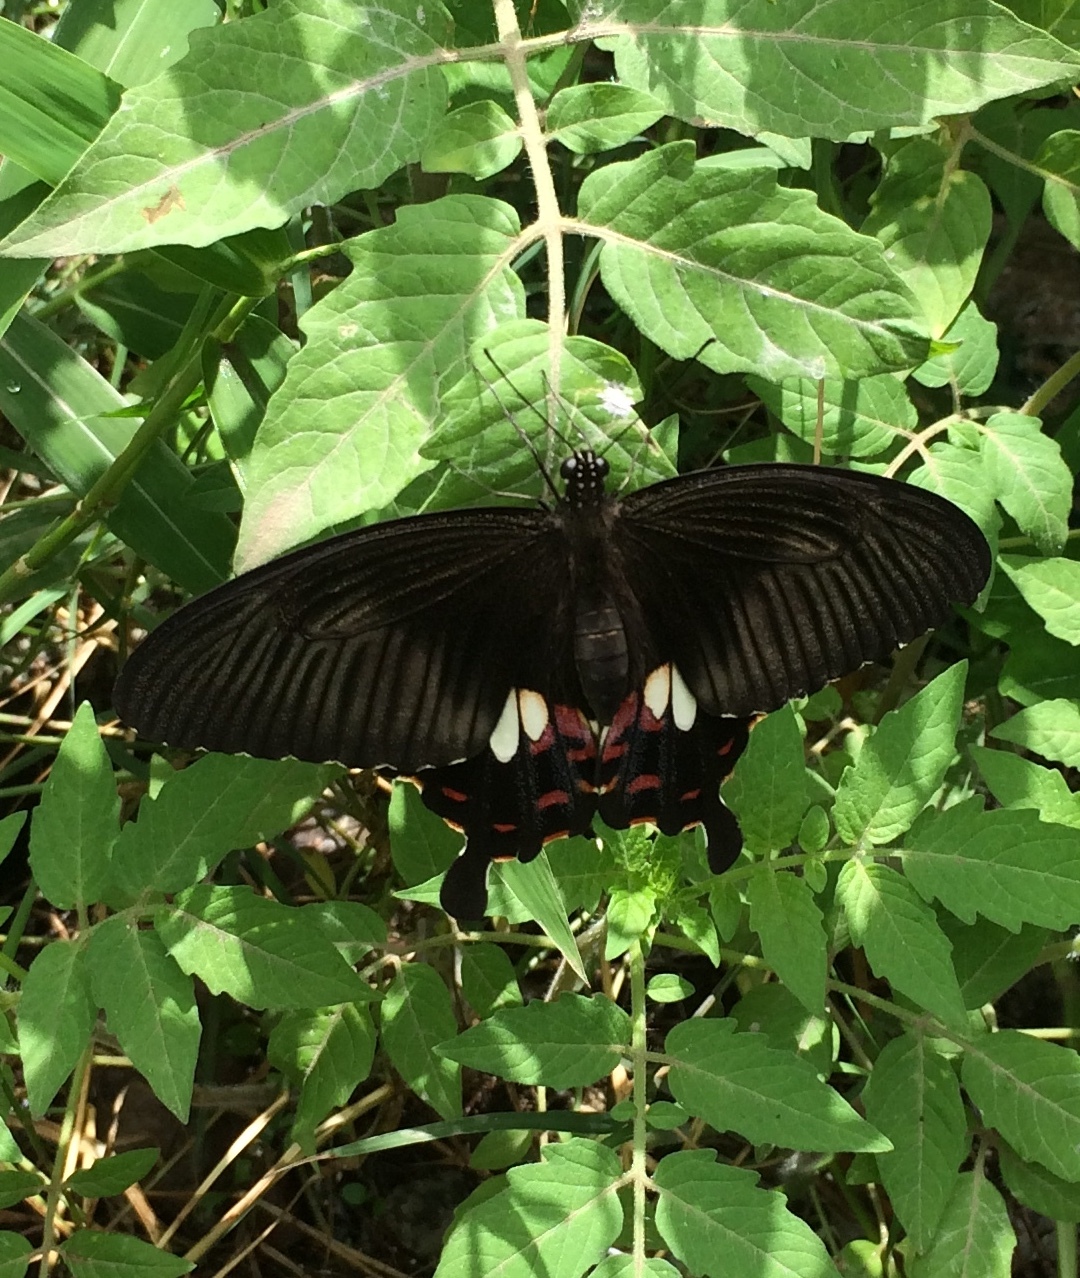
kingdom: Animalia
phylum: Arthropoda
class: Insecta
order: Lepidoptera
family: Papilionidae
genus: Papilio
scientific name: Papilio polytes
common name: Common mormon
